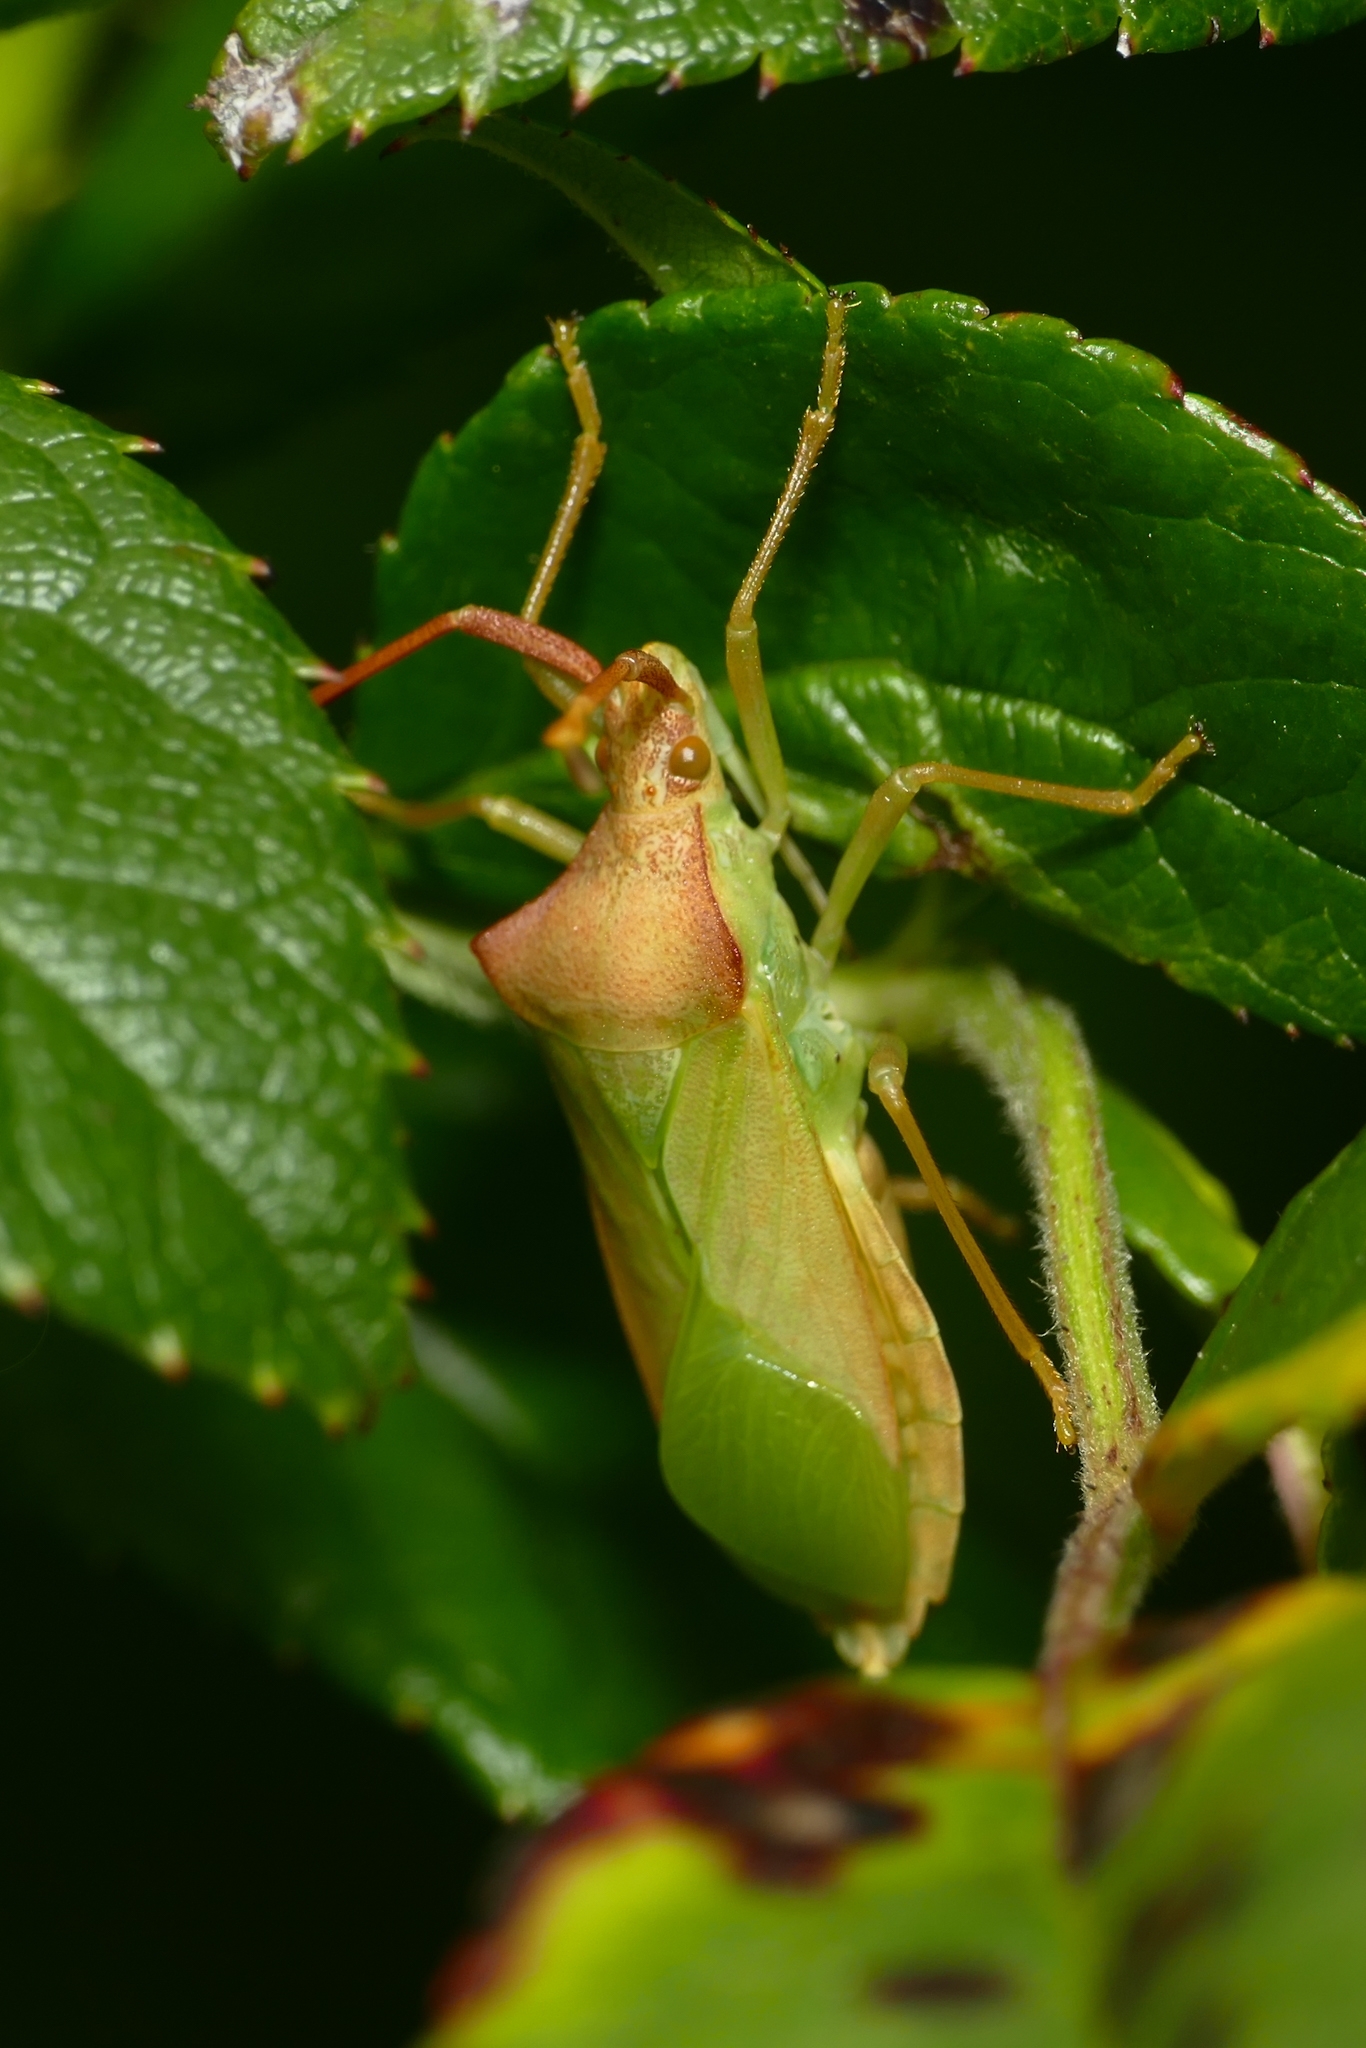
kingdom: Animalia
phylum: Arthropoda
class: Insecta
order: Hemiptera
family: Coreidae
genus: Gonocerus
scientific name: Gonocerus acuteangulatus
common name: Box bug
